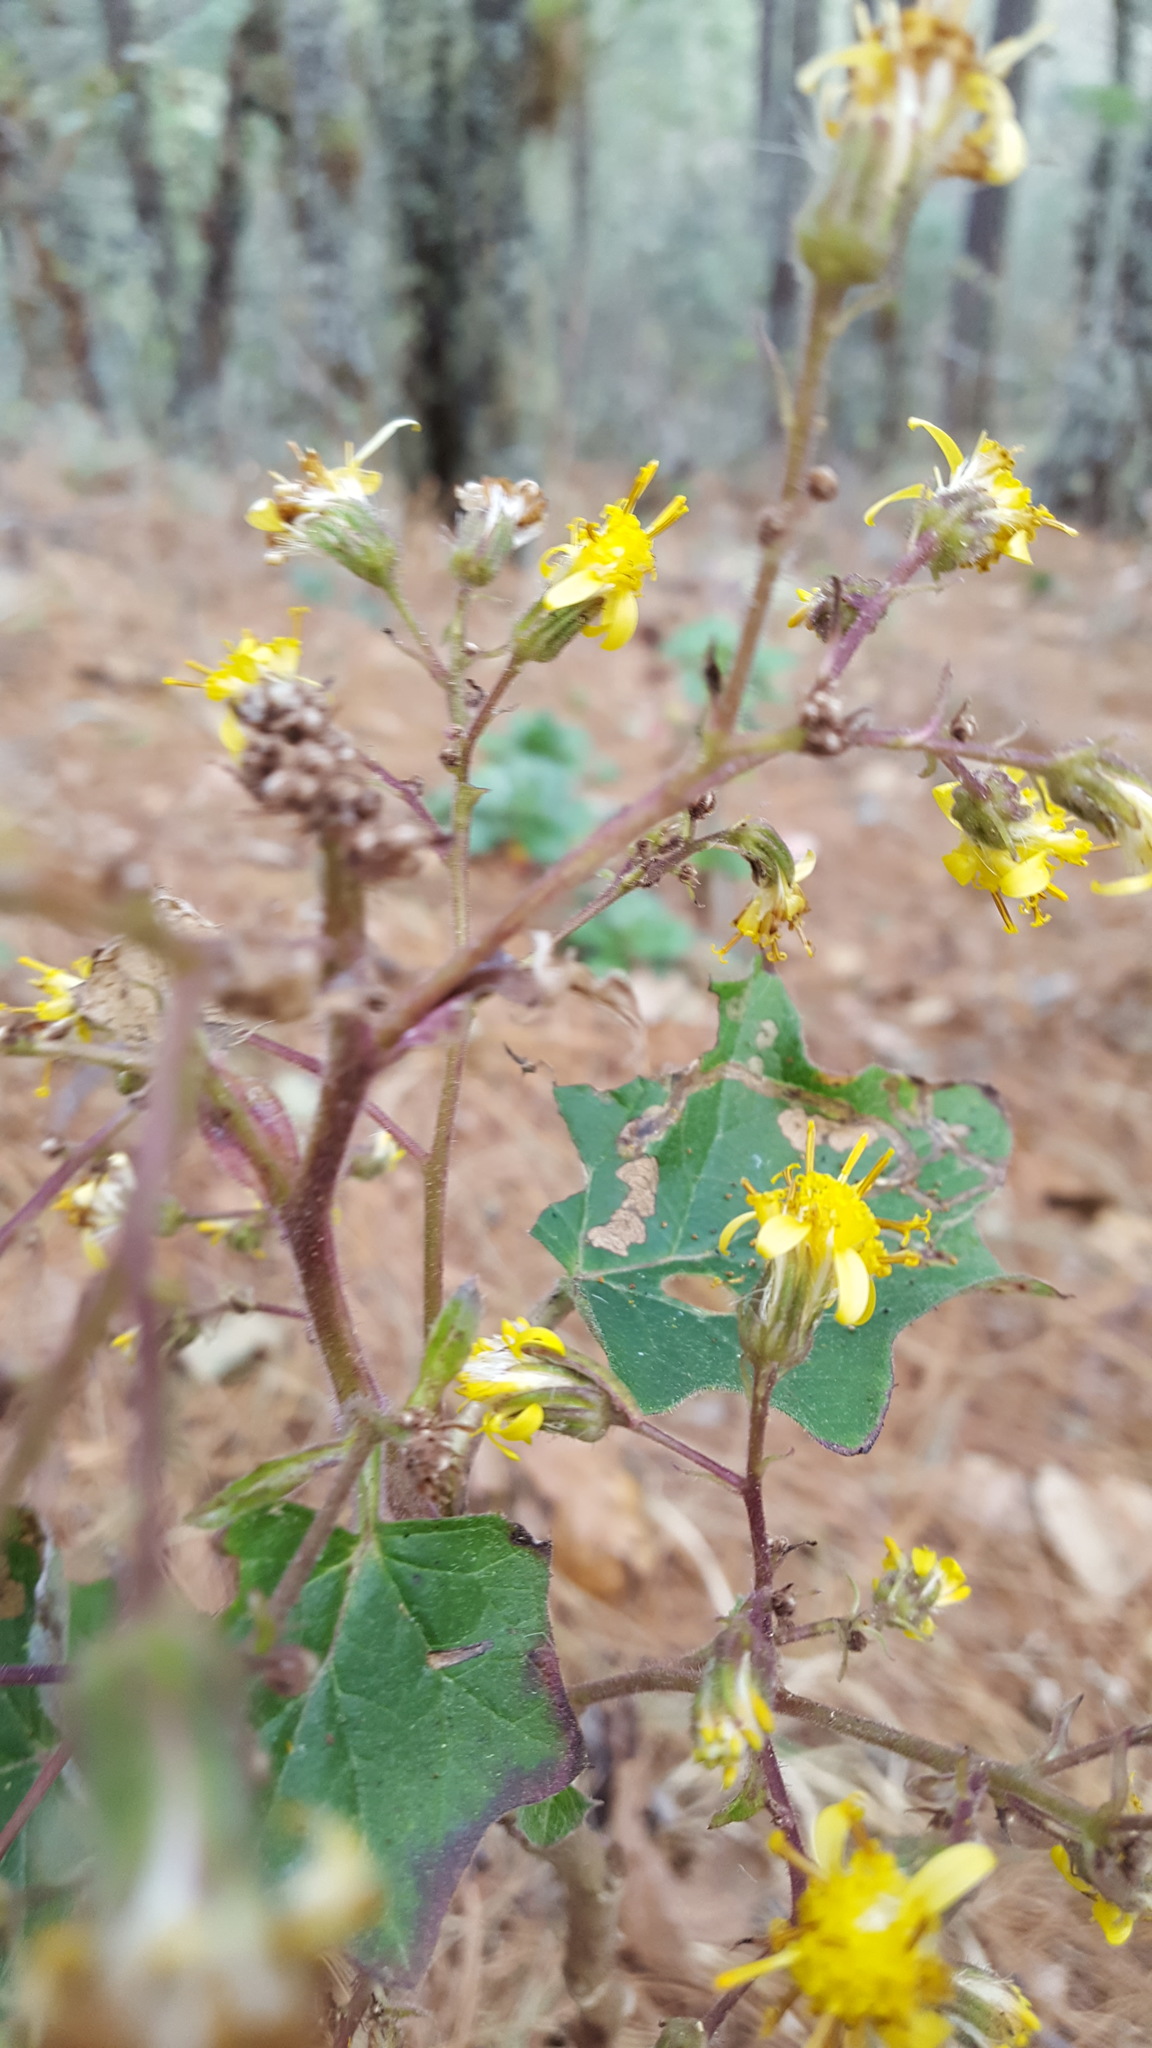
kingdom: Plantae
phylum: Tracheophyta
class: Magnoliopsida
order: Asterales
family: Asteraceae
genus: Roldana
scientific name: Roldana oaxacana
